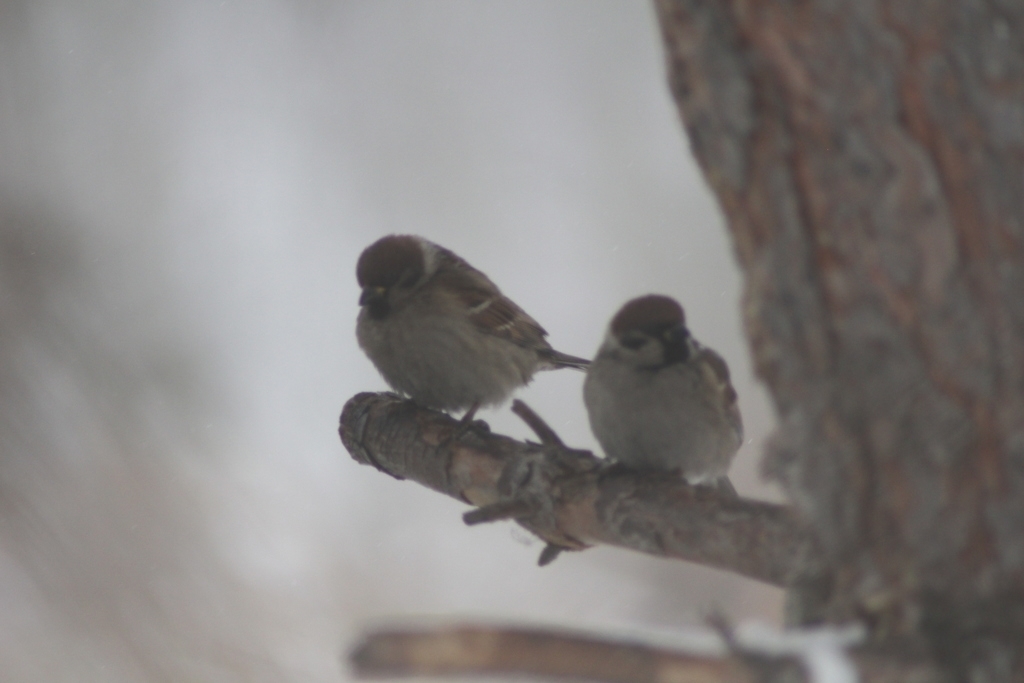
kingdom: Animalia
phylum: Chordata
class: Aves
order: Passeriformes
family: Passeridae
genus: Passer
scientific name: Passer montanus
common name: Eurasian tree sparrow
